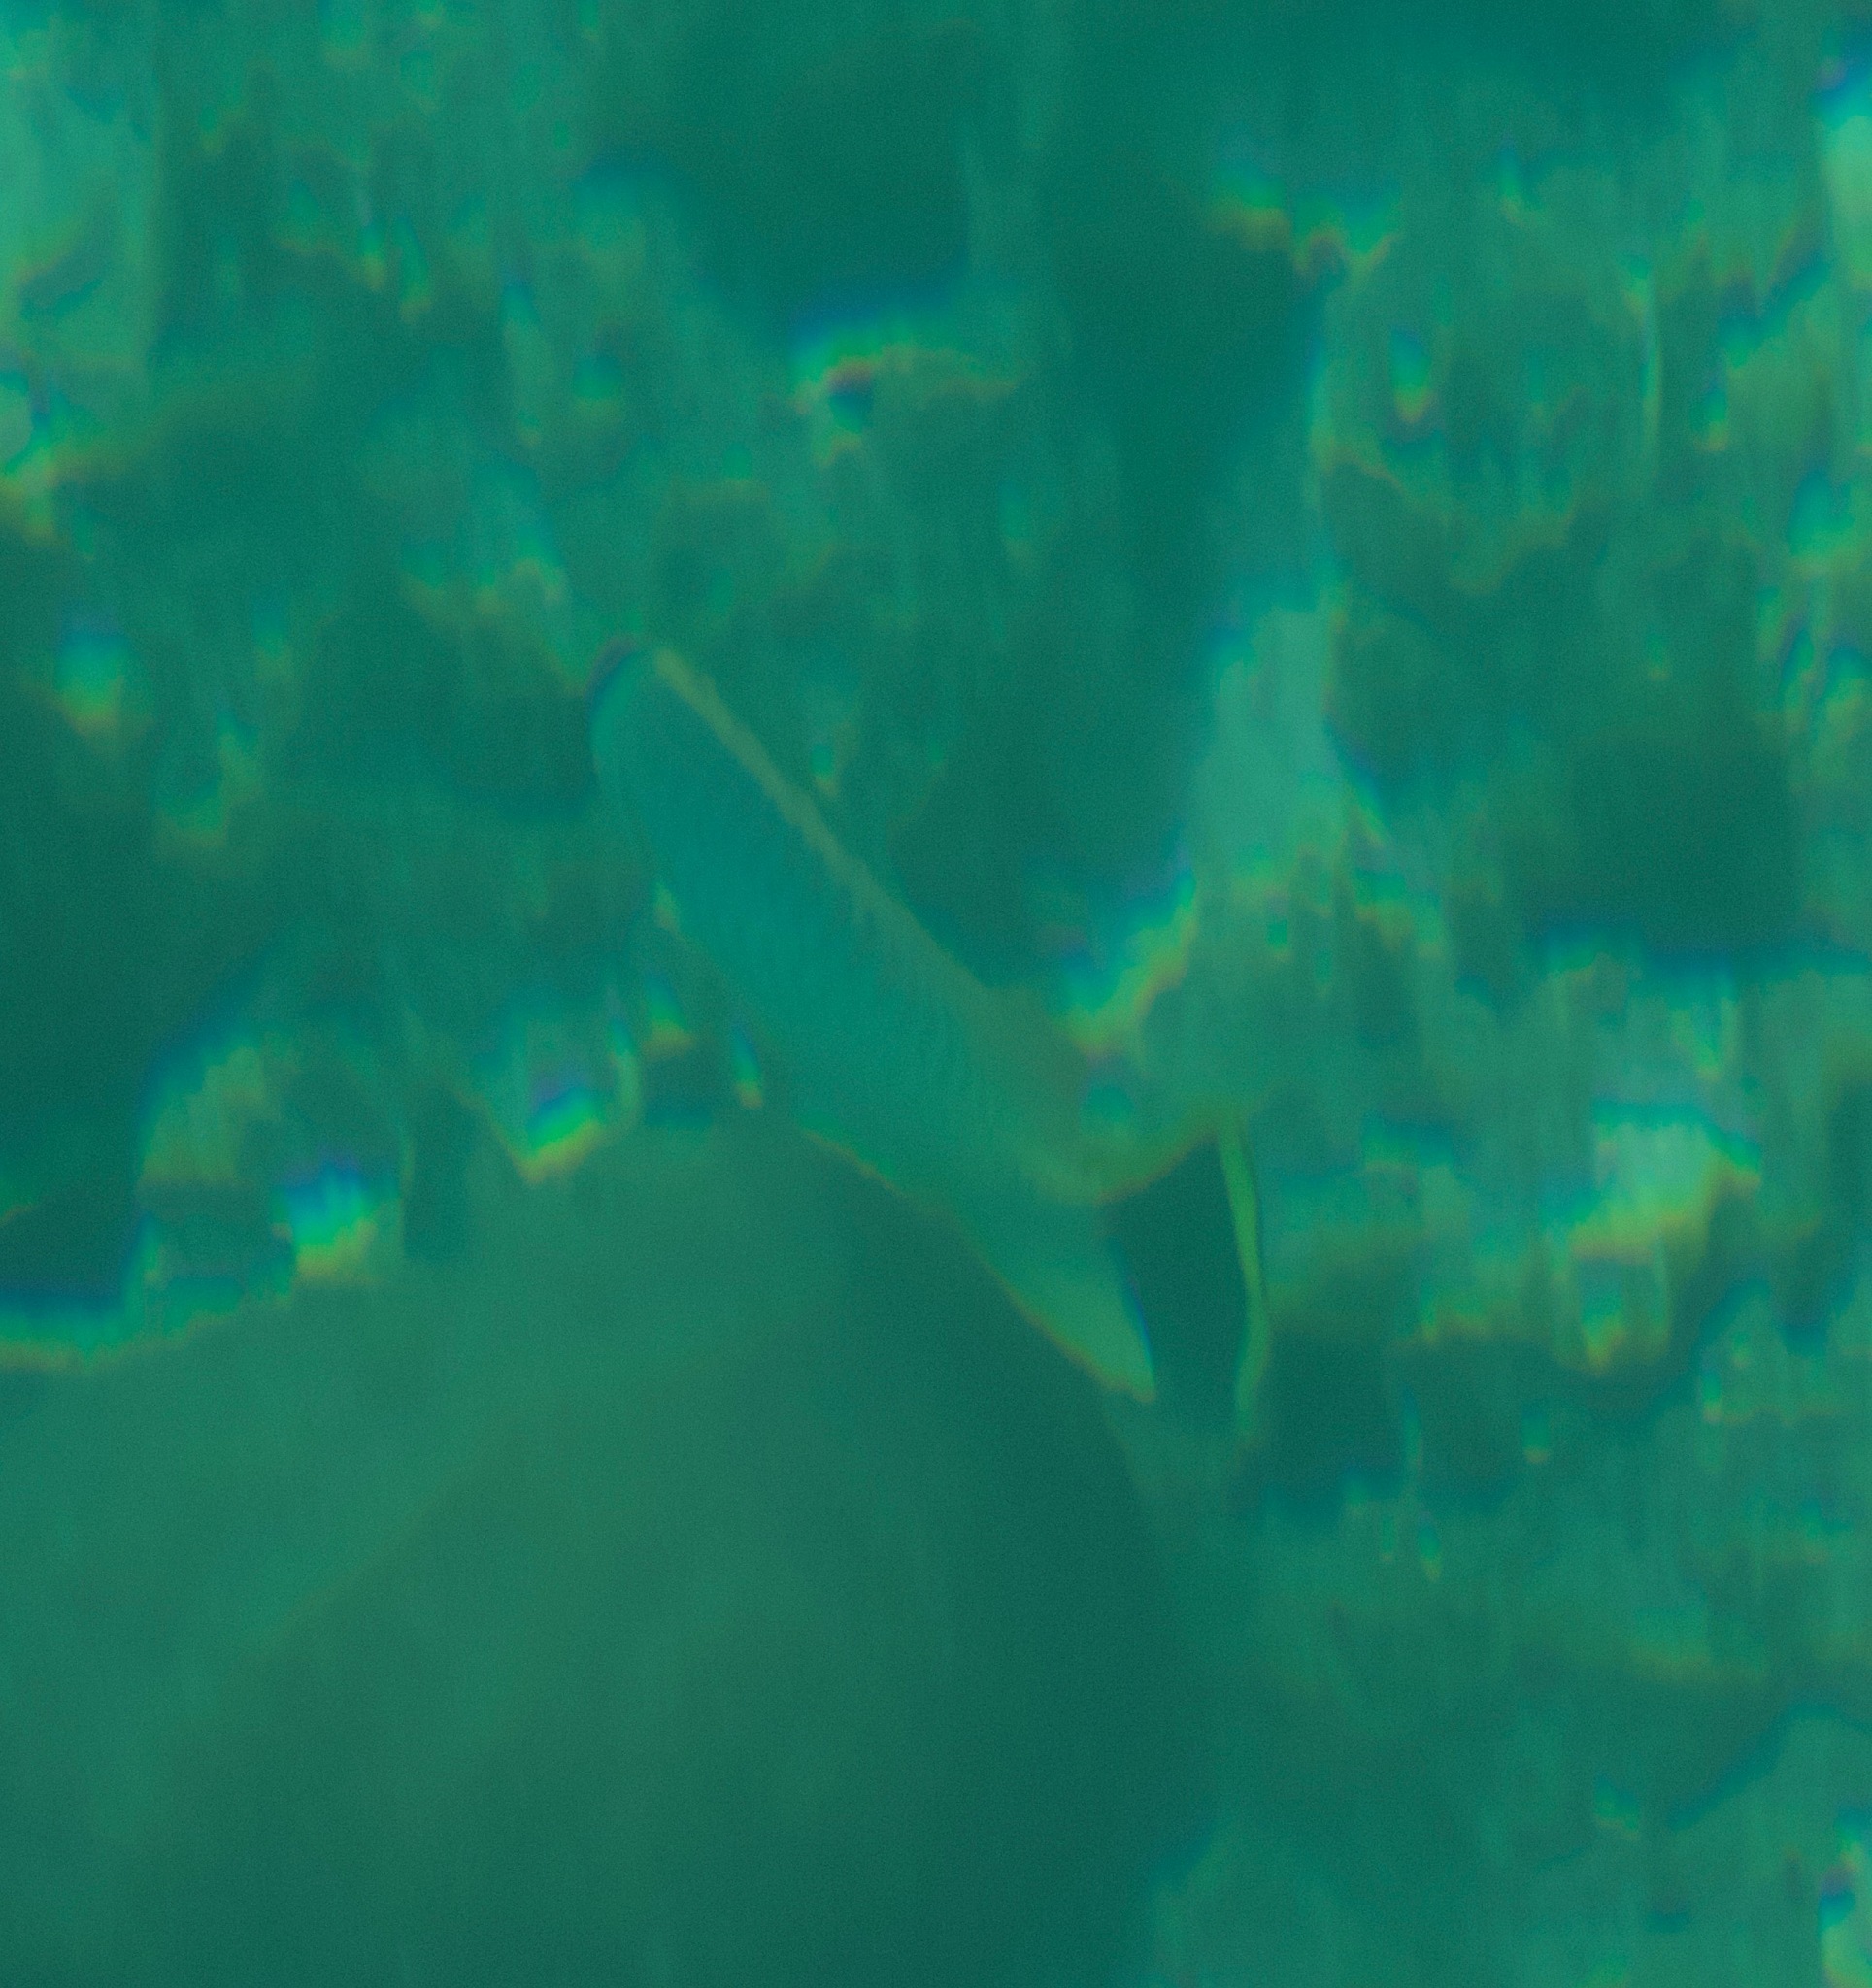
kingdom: Animalia
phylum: Chordata
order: Perciformes
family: Chaetodontidae
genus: Chaetodon
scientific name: Chaetodon trifascialis
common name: Chevroned butterflyfish
